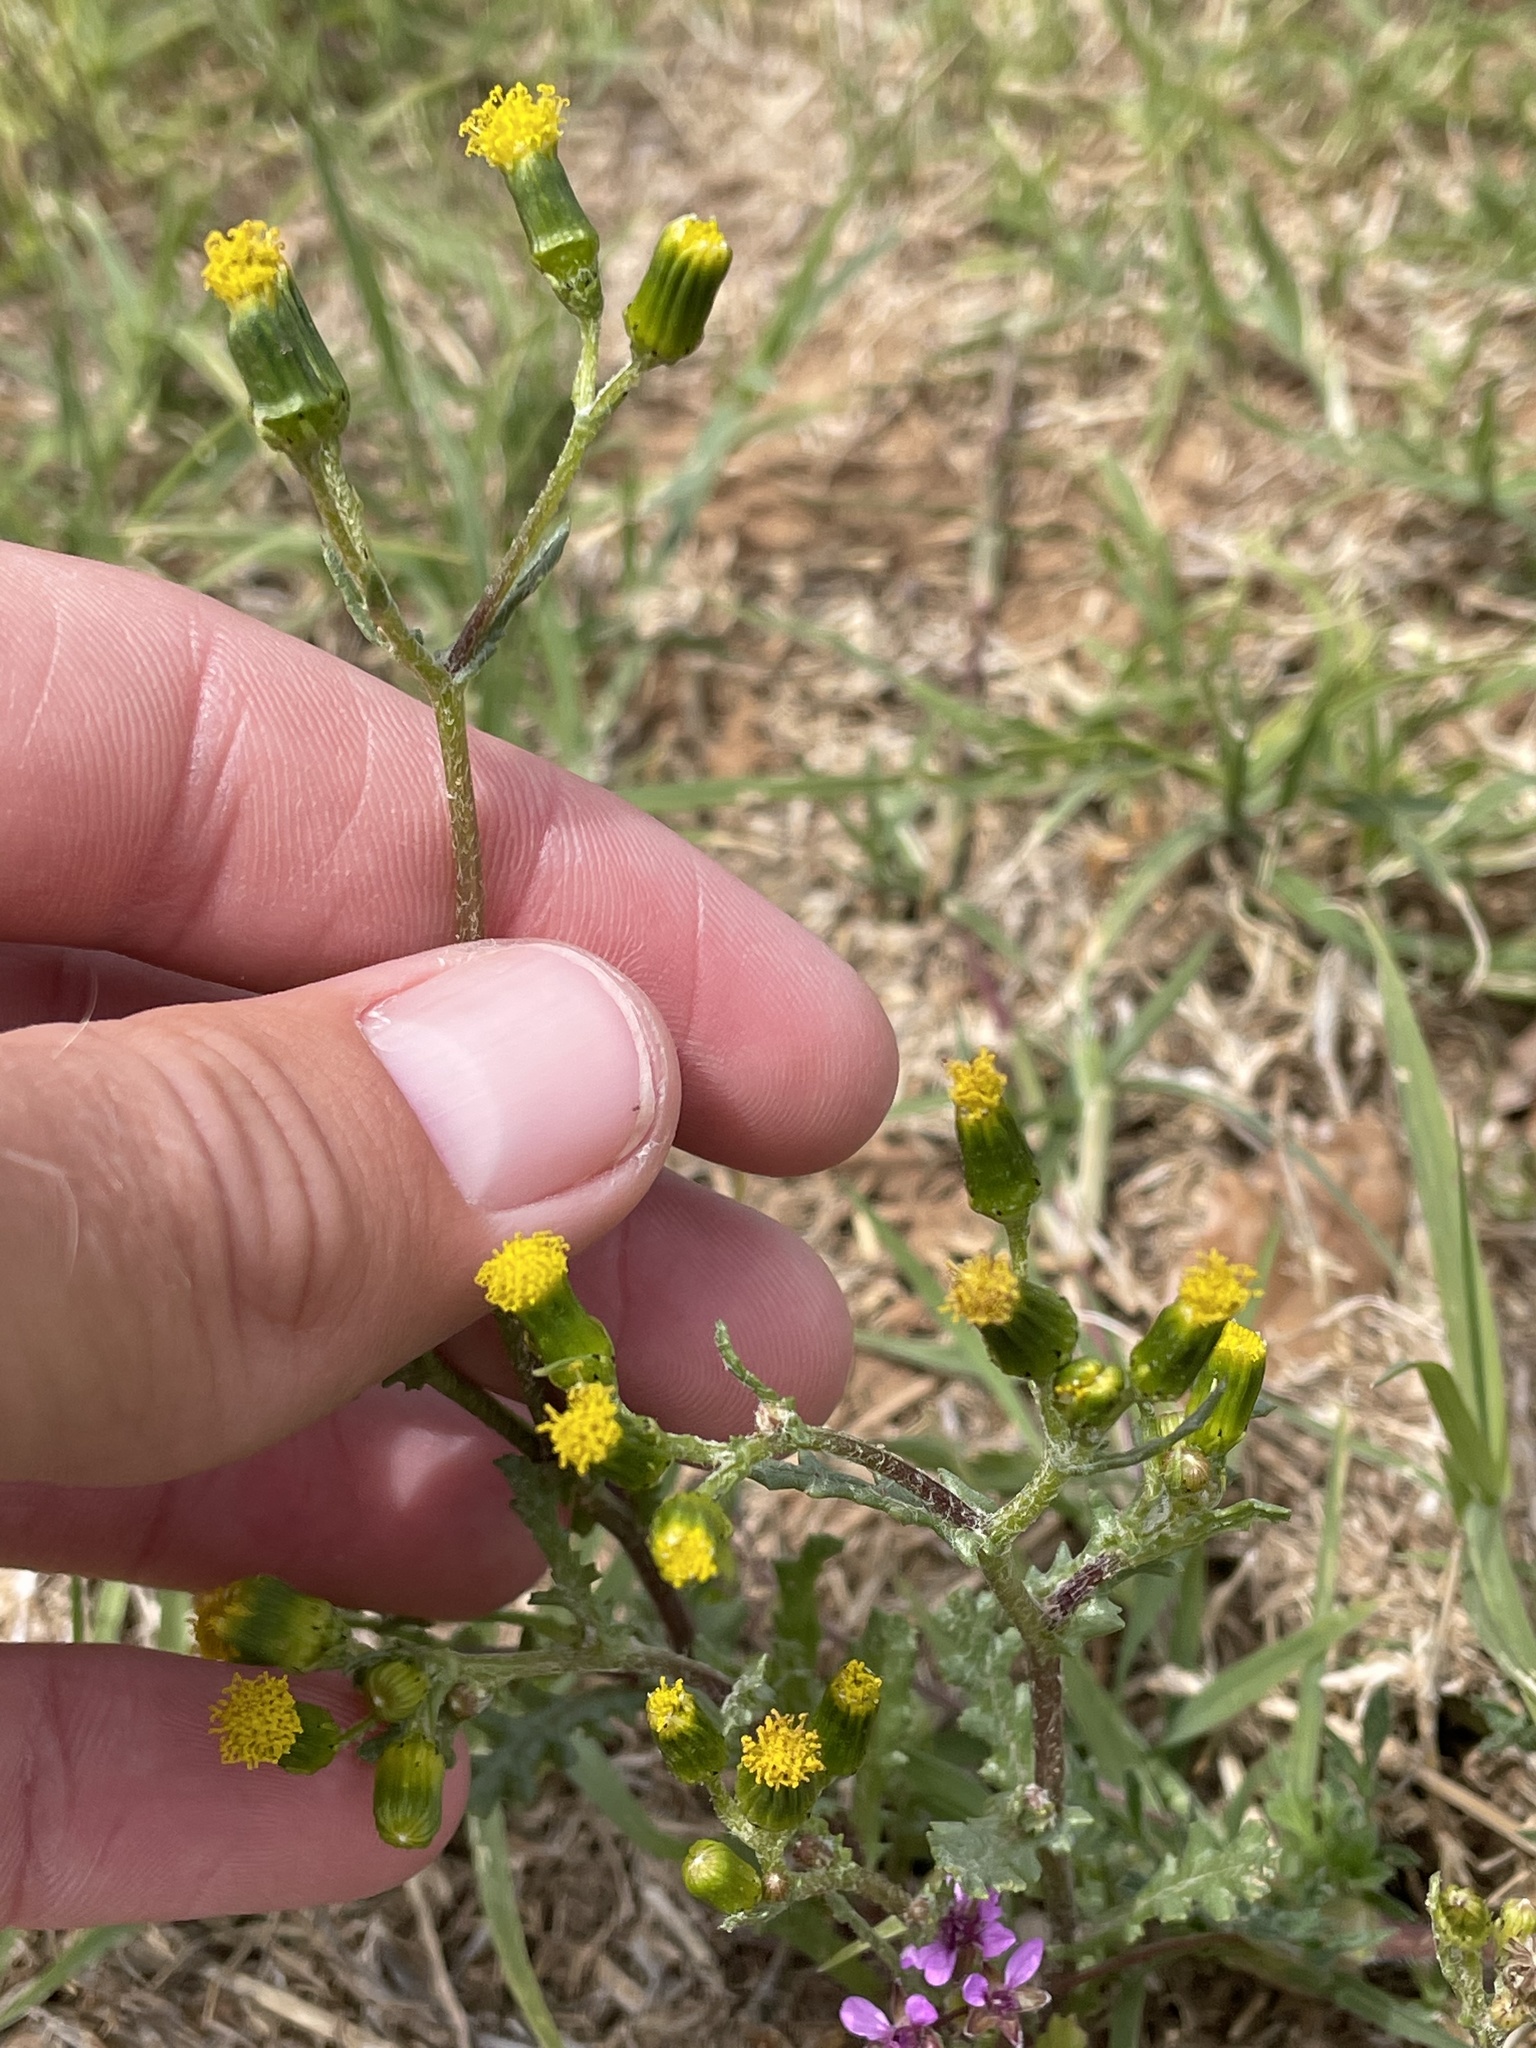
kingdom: Plantae
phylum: Tracheophyta
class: Magnoliopsida
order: Asterales
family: Asteraceae
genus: Senecio
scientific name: Senecio vulgaris
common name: Old-man-in-the-spring
